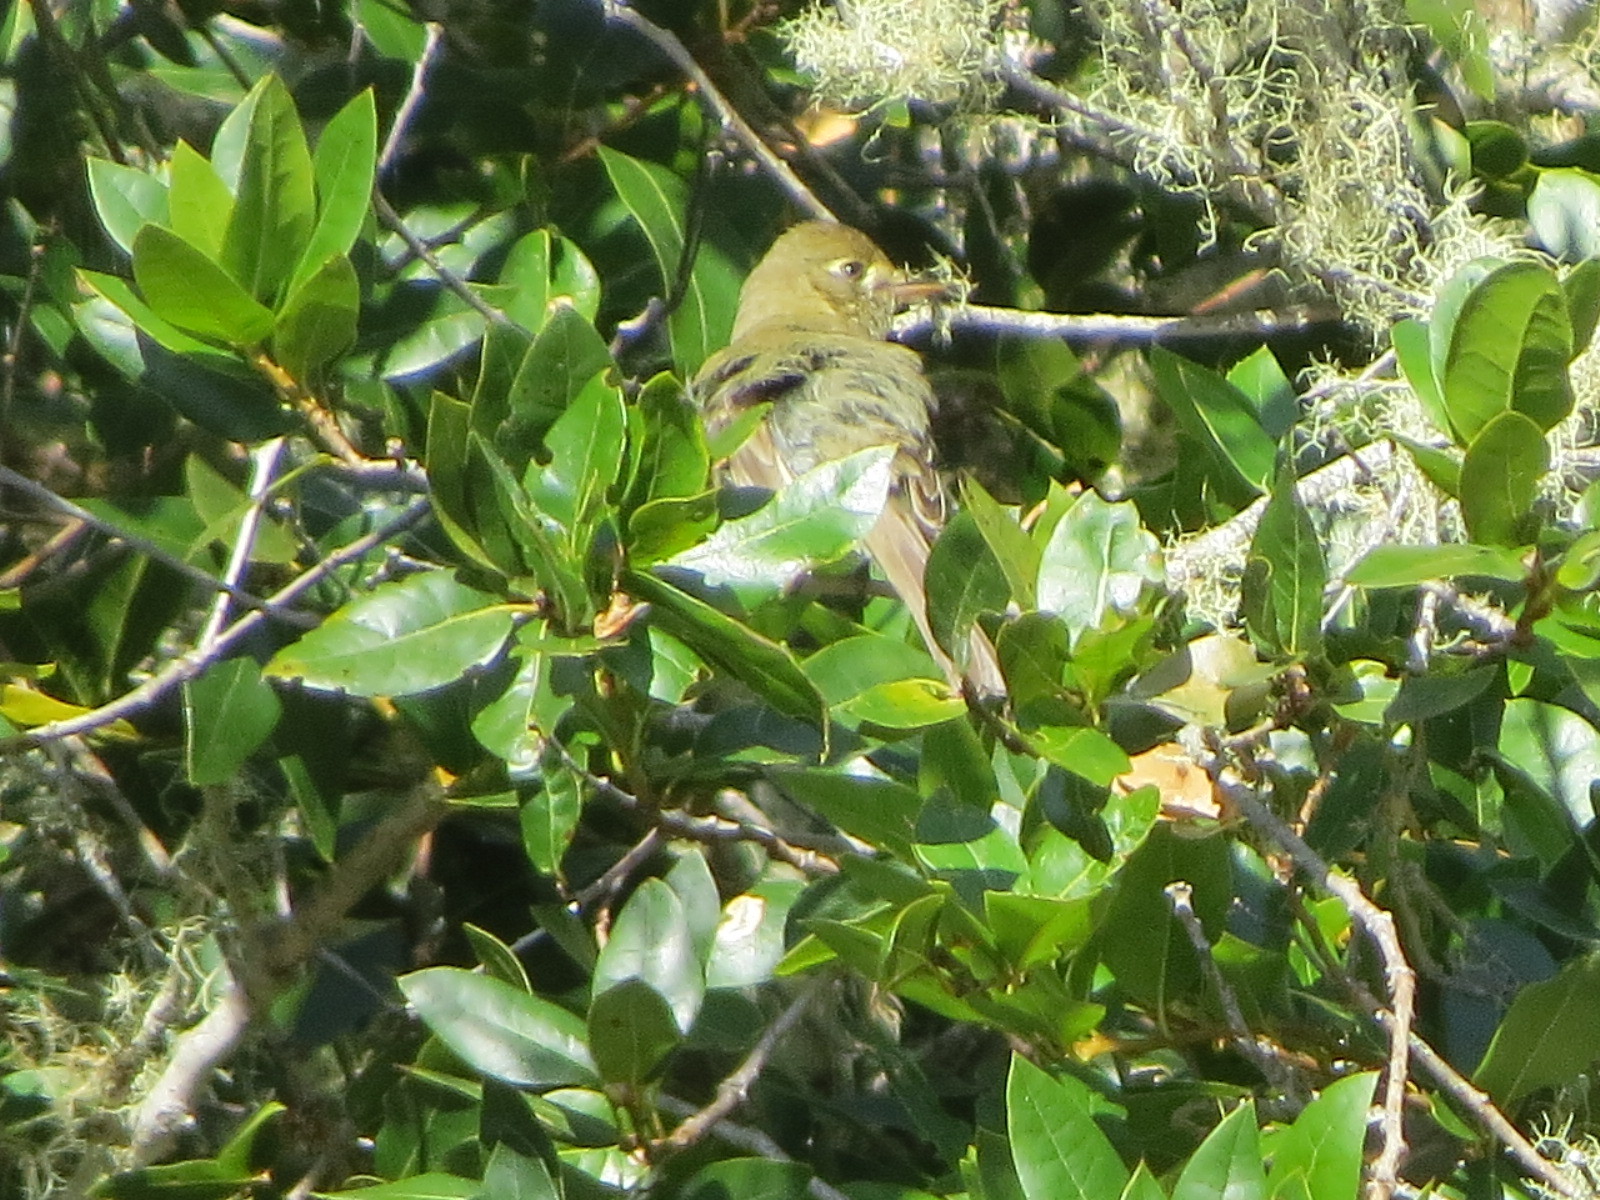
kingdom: Animalia
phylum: Chordata
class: Aves
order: Passeriformes
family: Tyrannidae
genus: Empidonax
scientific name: Empidonax difficilis
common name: Pacific-slope flycatcher
